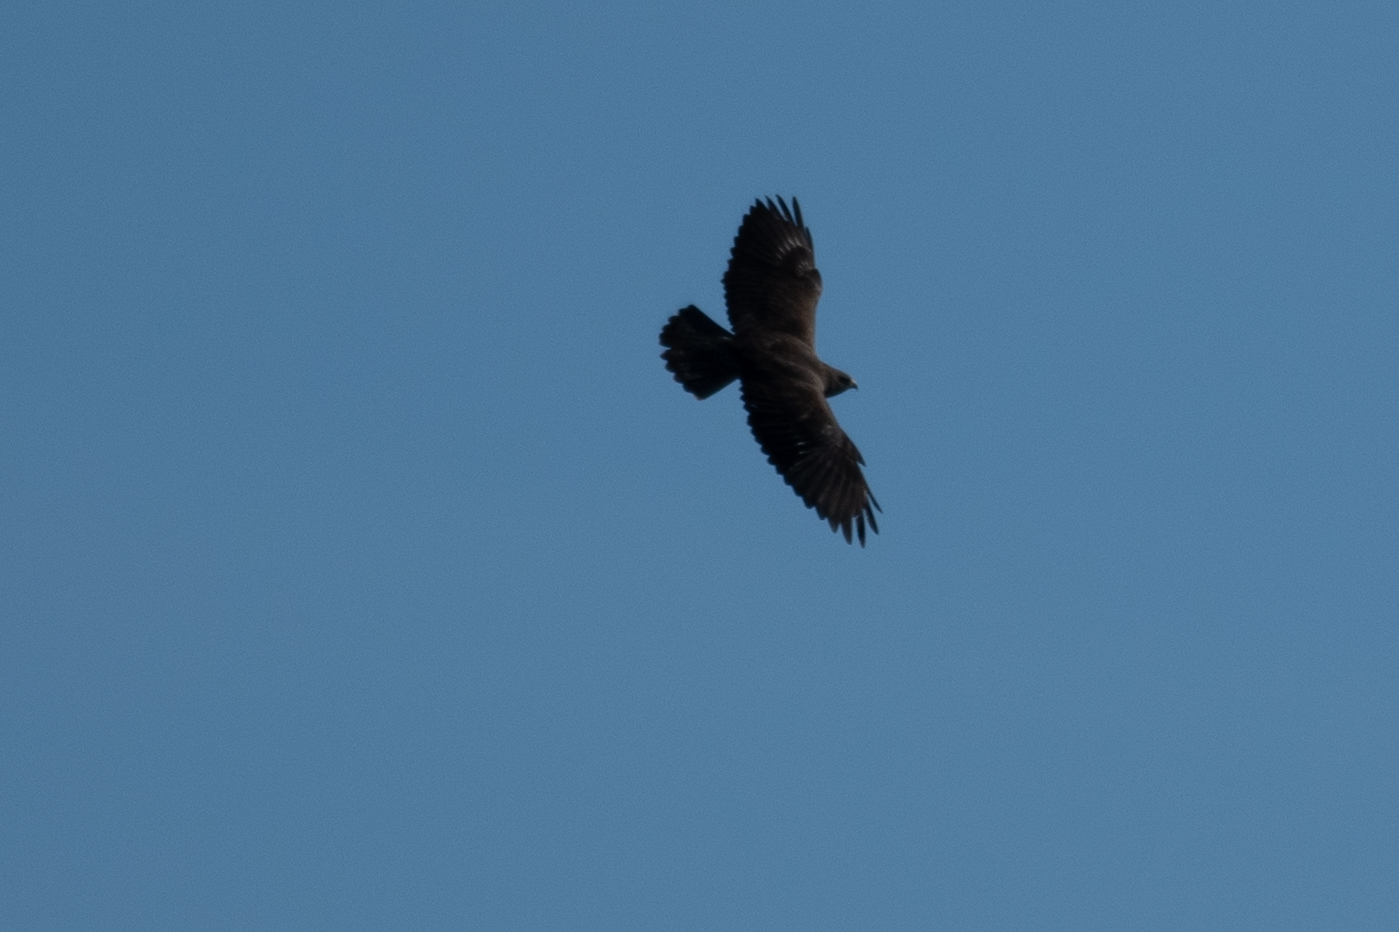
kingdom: Animalia
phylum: Chordata
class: Aves
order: Accipitriformes
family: Accipitridae
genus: Buteo
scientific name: Buteo swainsoni
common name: Swainson's hawk
